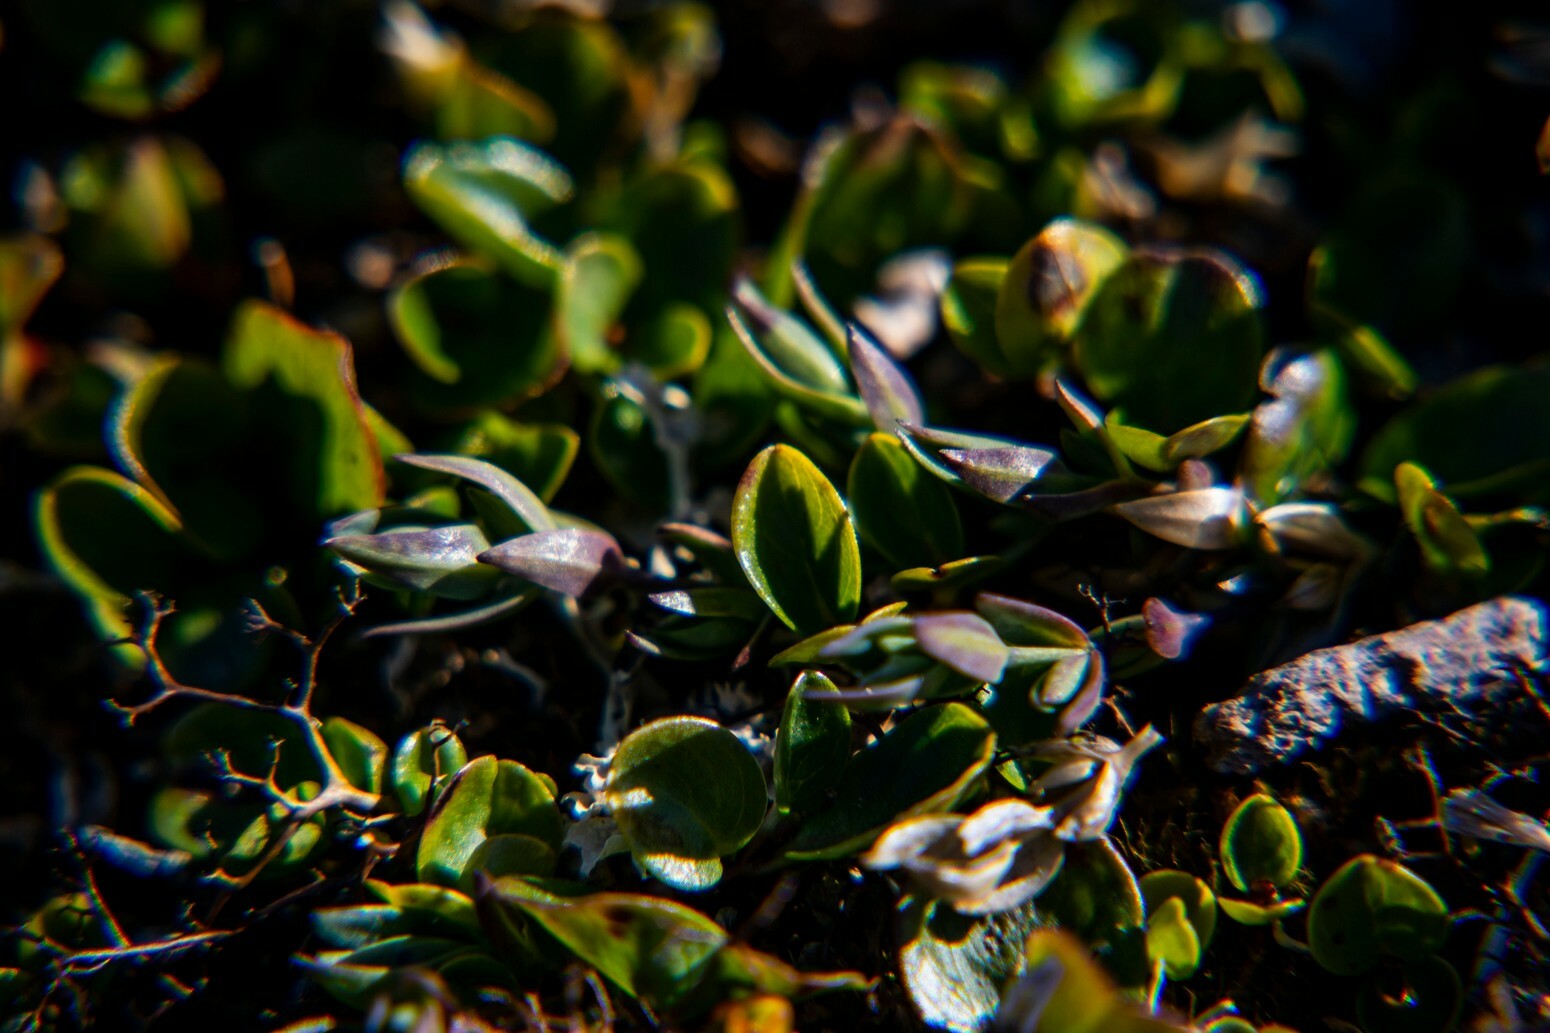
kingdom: Plantae
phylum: Tracheophyta
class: Magnoliopsida
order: Malpighiales
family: Salicaceae
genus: Salix
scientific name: Salix polaris
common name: Polar willow
